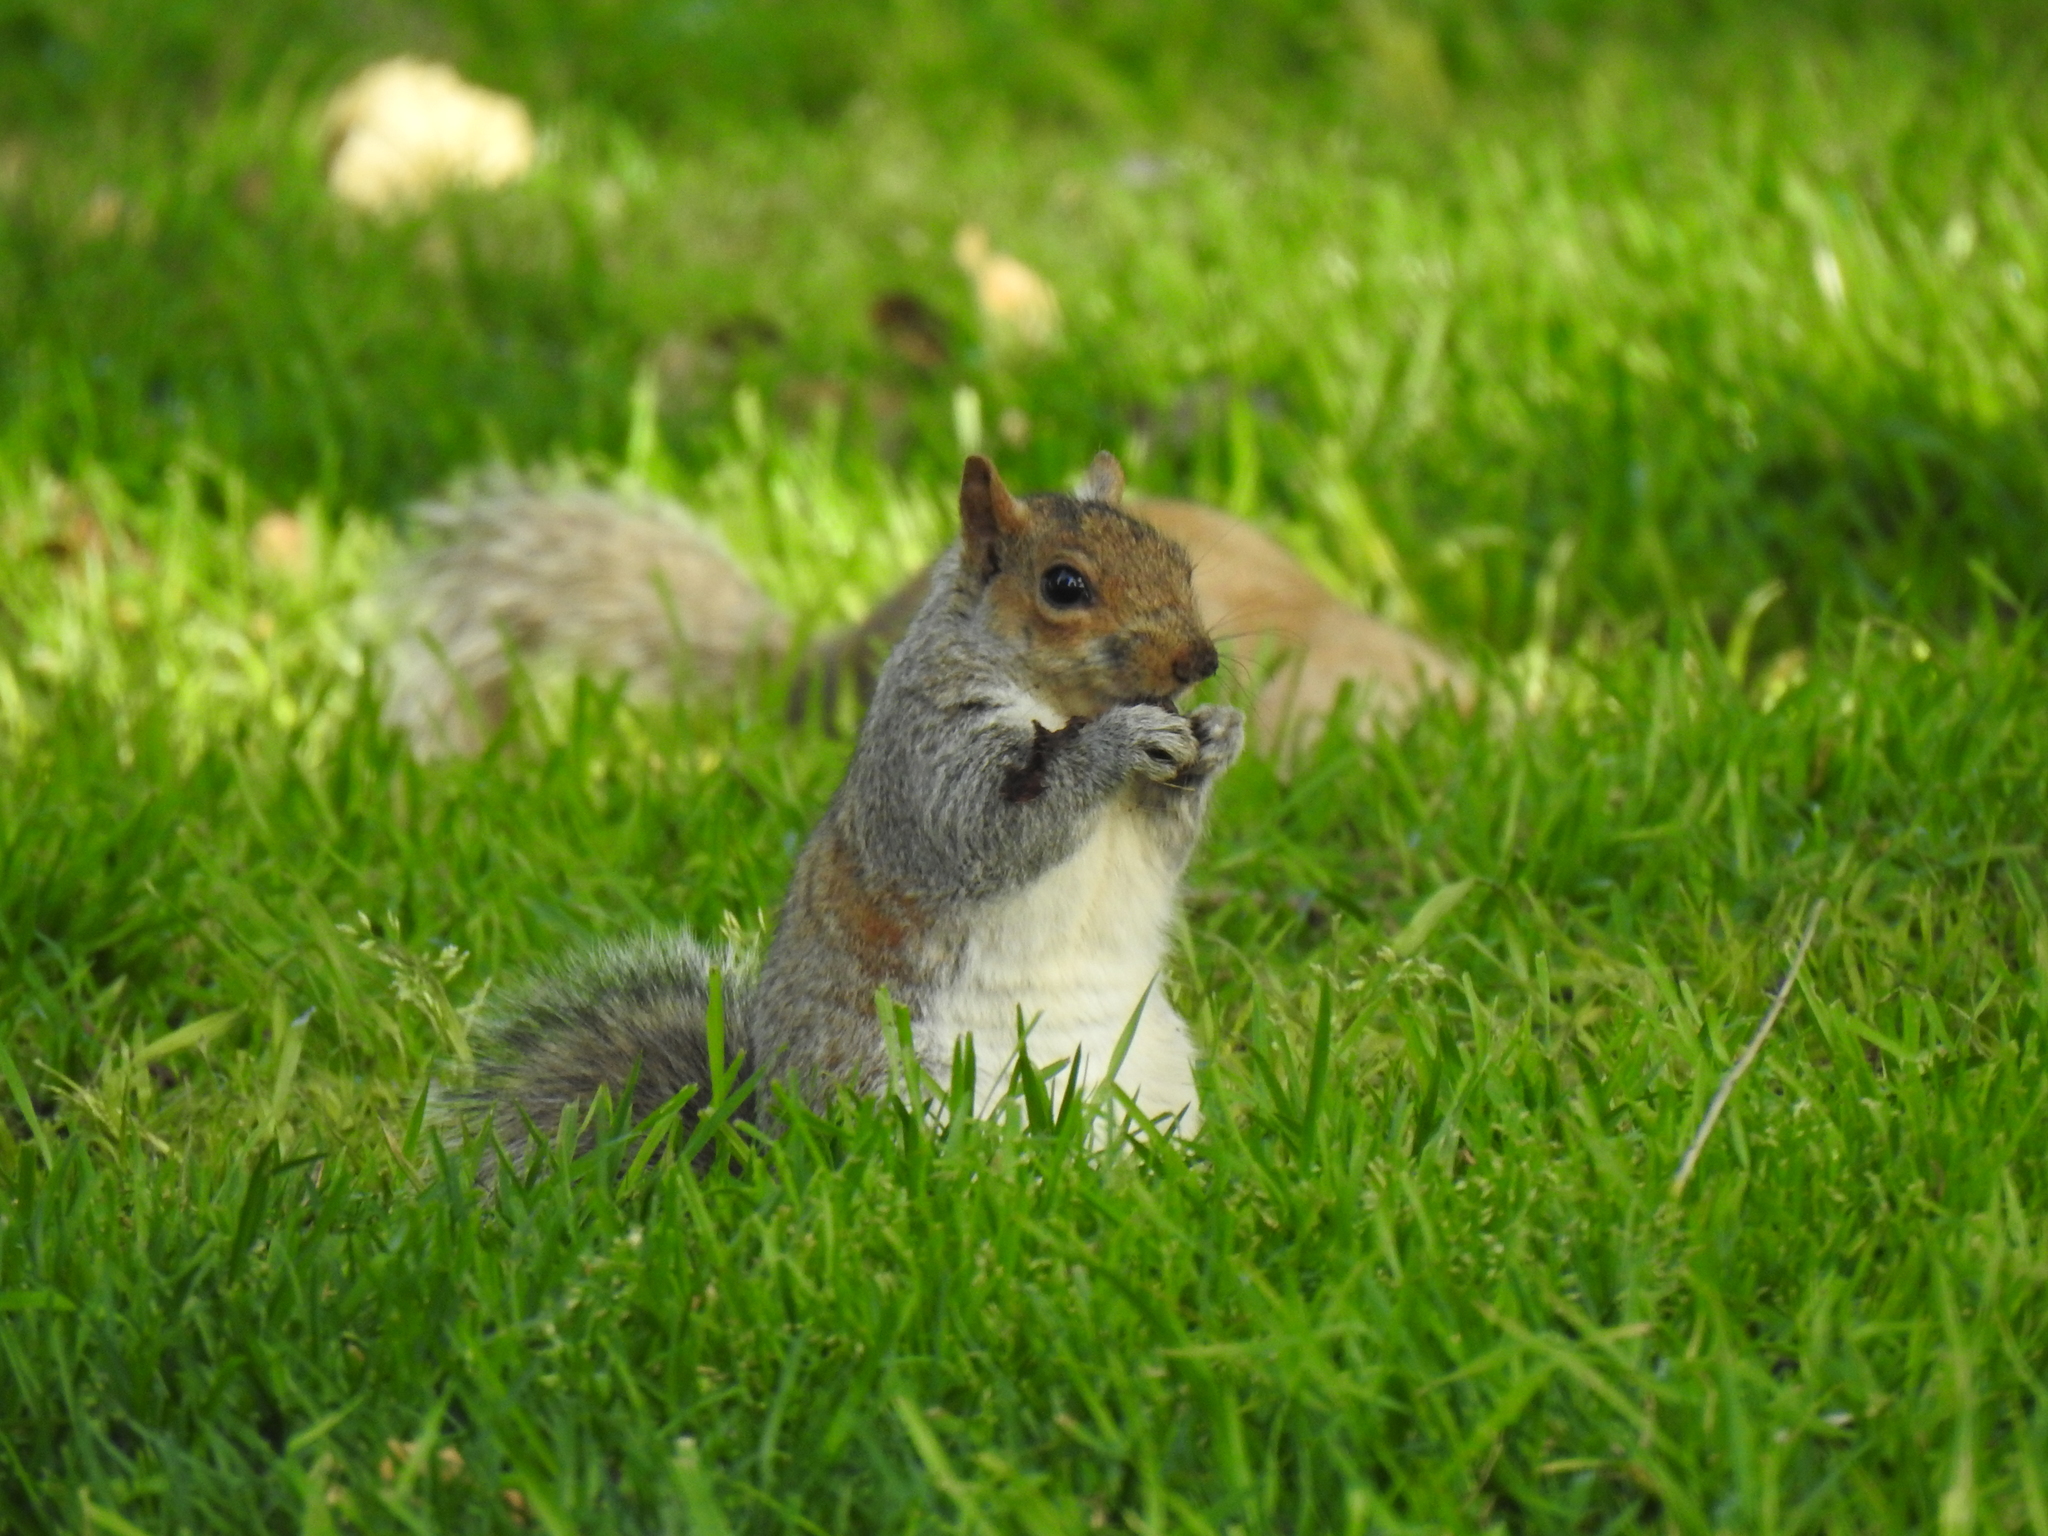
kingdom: Animalia
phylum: Chordata
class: Mammalia
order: Rodentia
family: Sciuridae
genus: Sciurus
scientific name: Sciurus carolinensis
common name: Eastern gray squirrel
